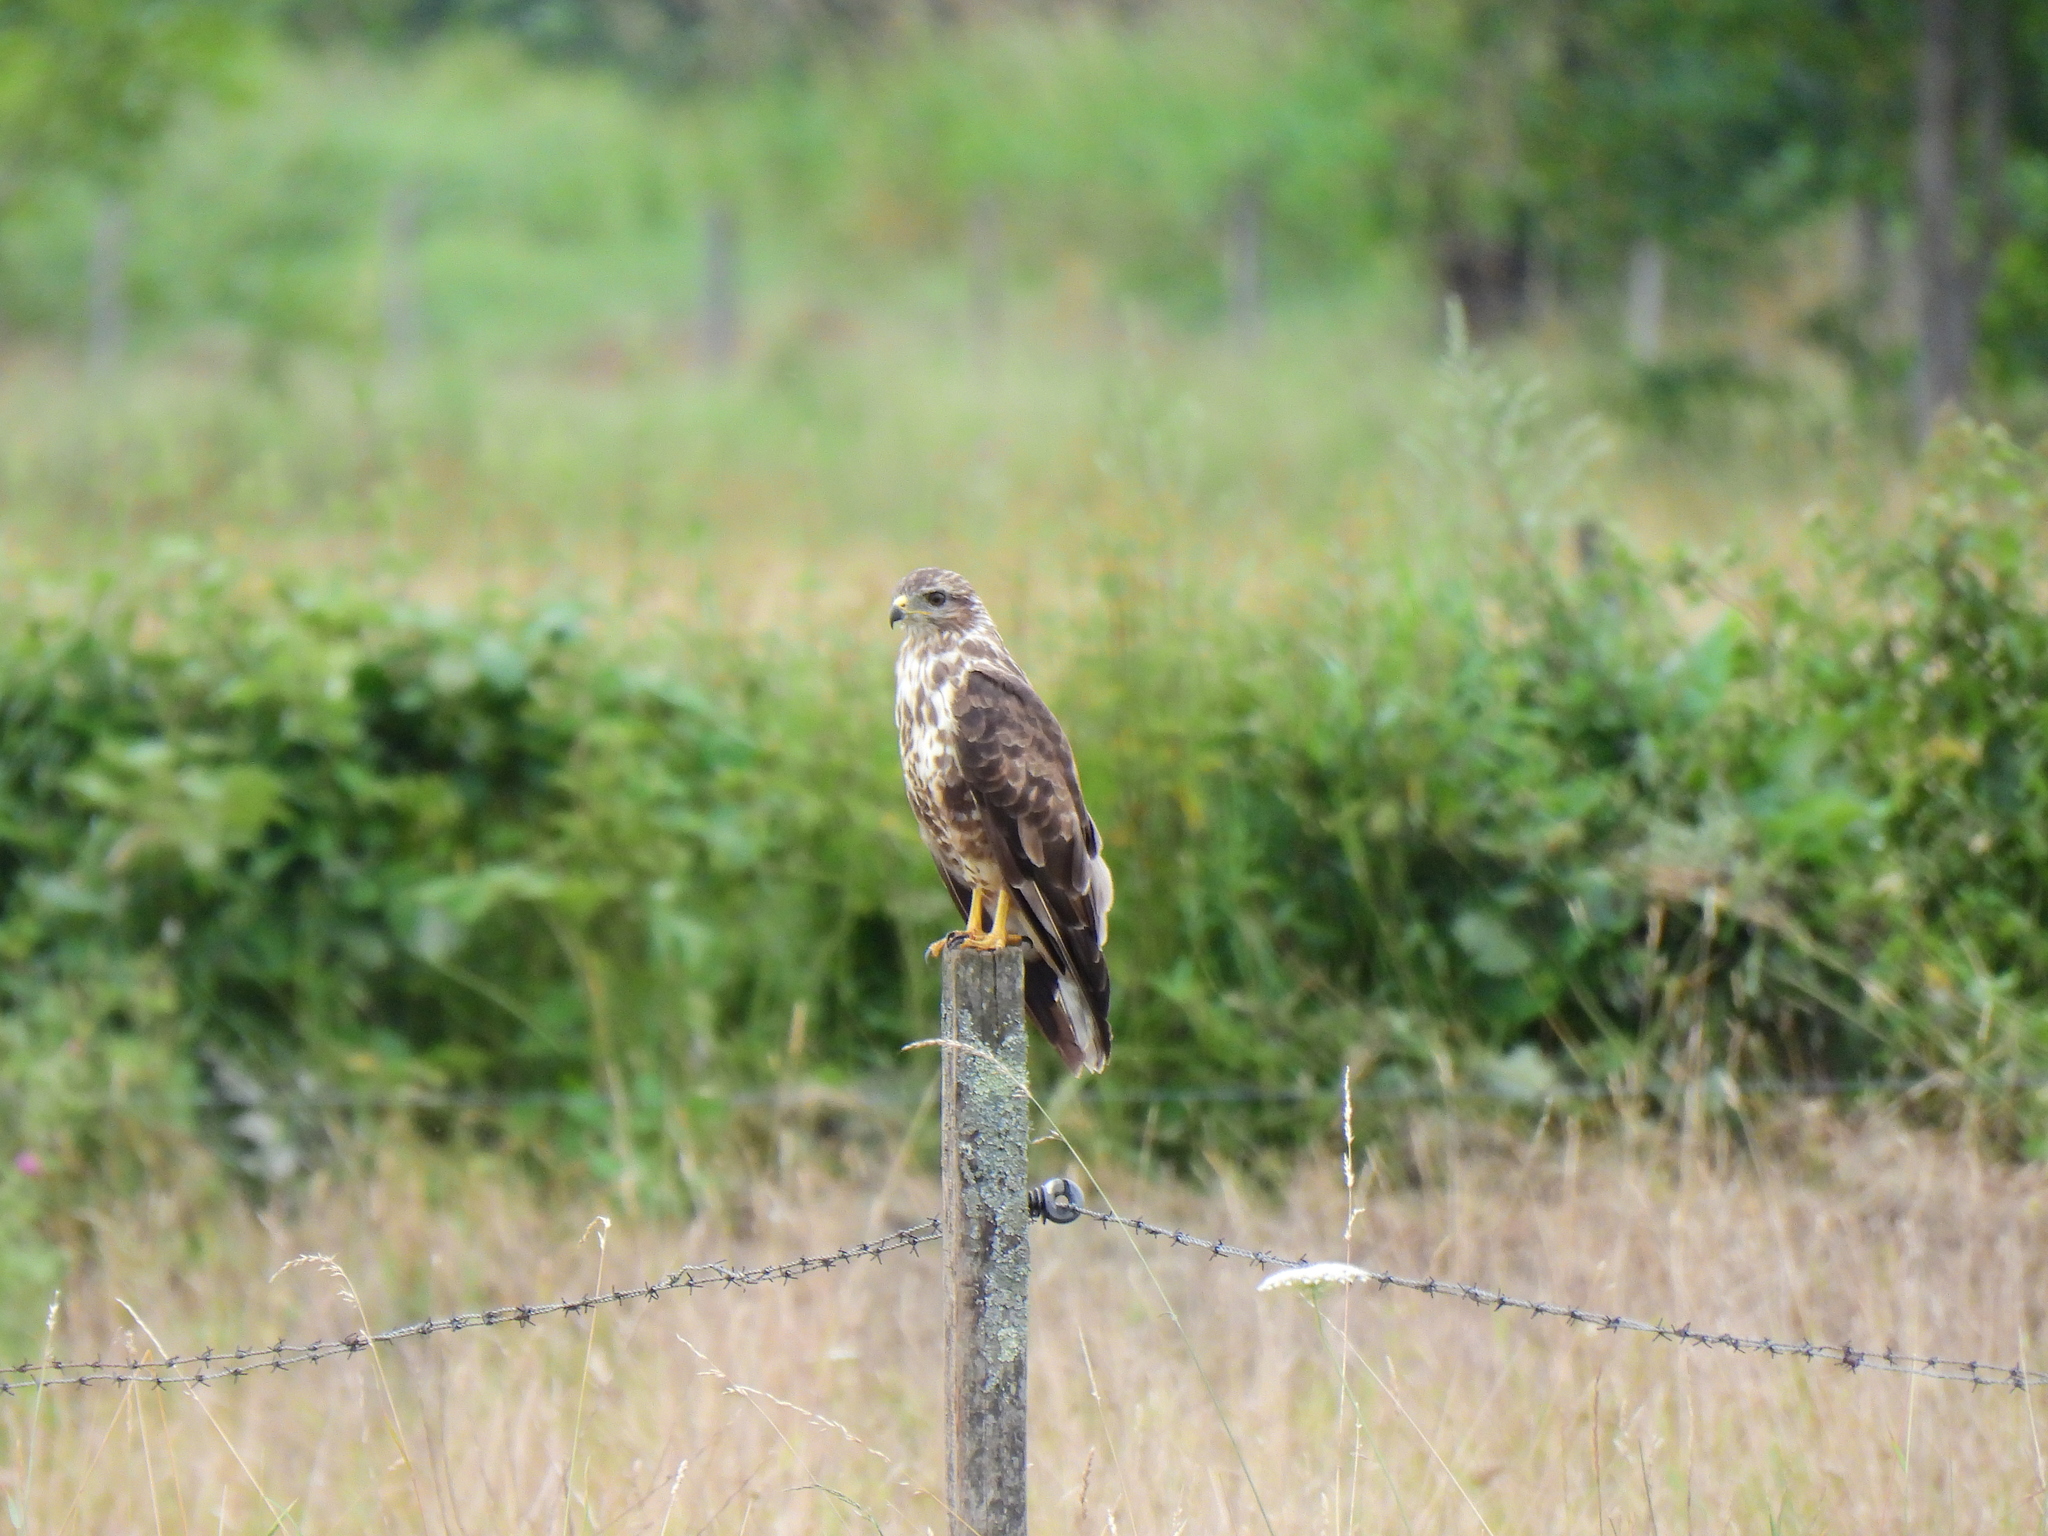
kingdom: Animalia
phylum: Chordata
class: Aves
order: Accipitriformes
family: Accipitridae
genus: Buteo
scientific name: Buteo buteo
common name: Common buzzard
